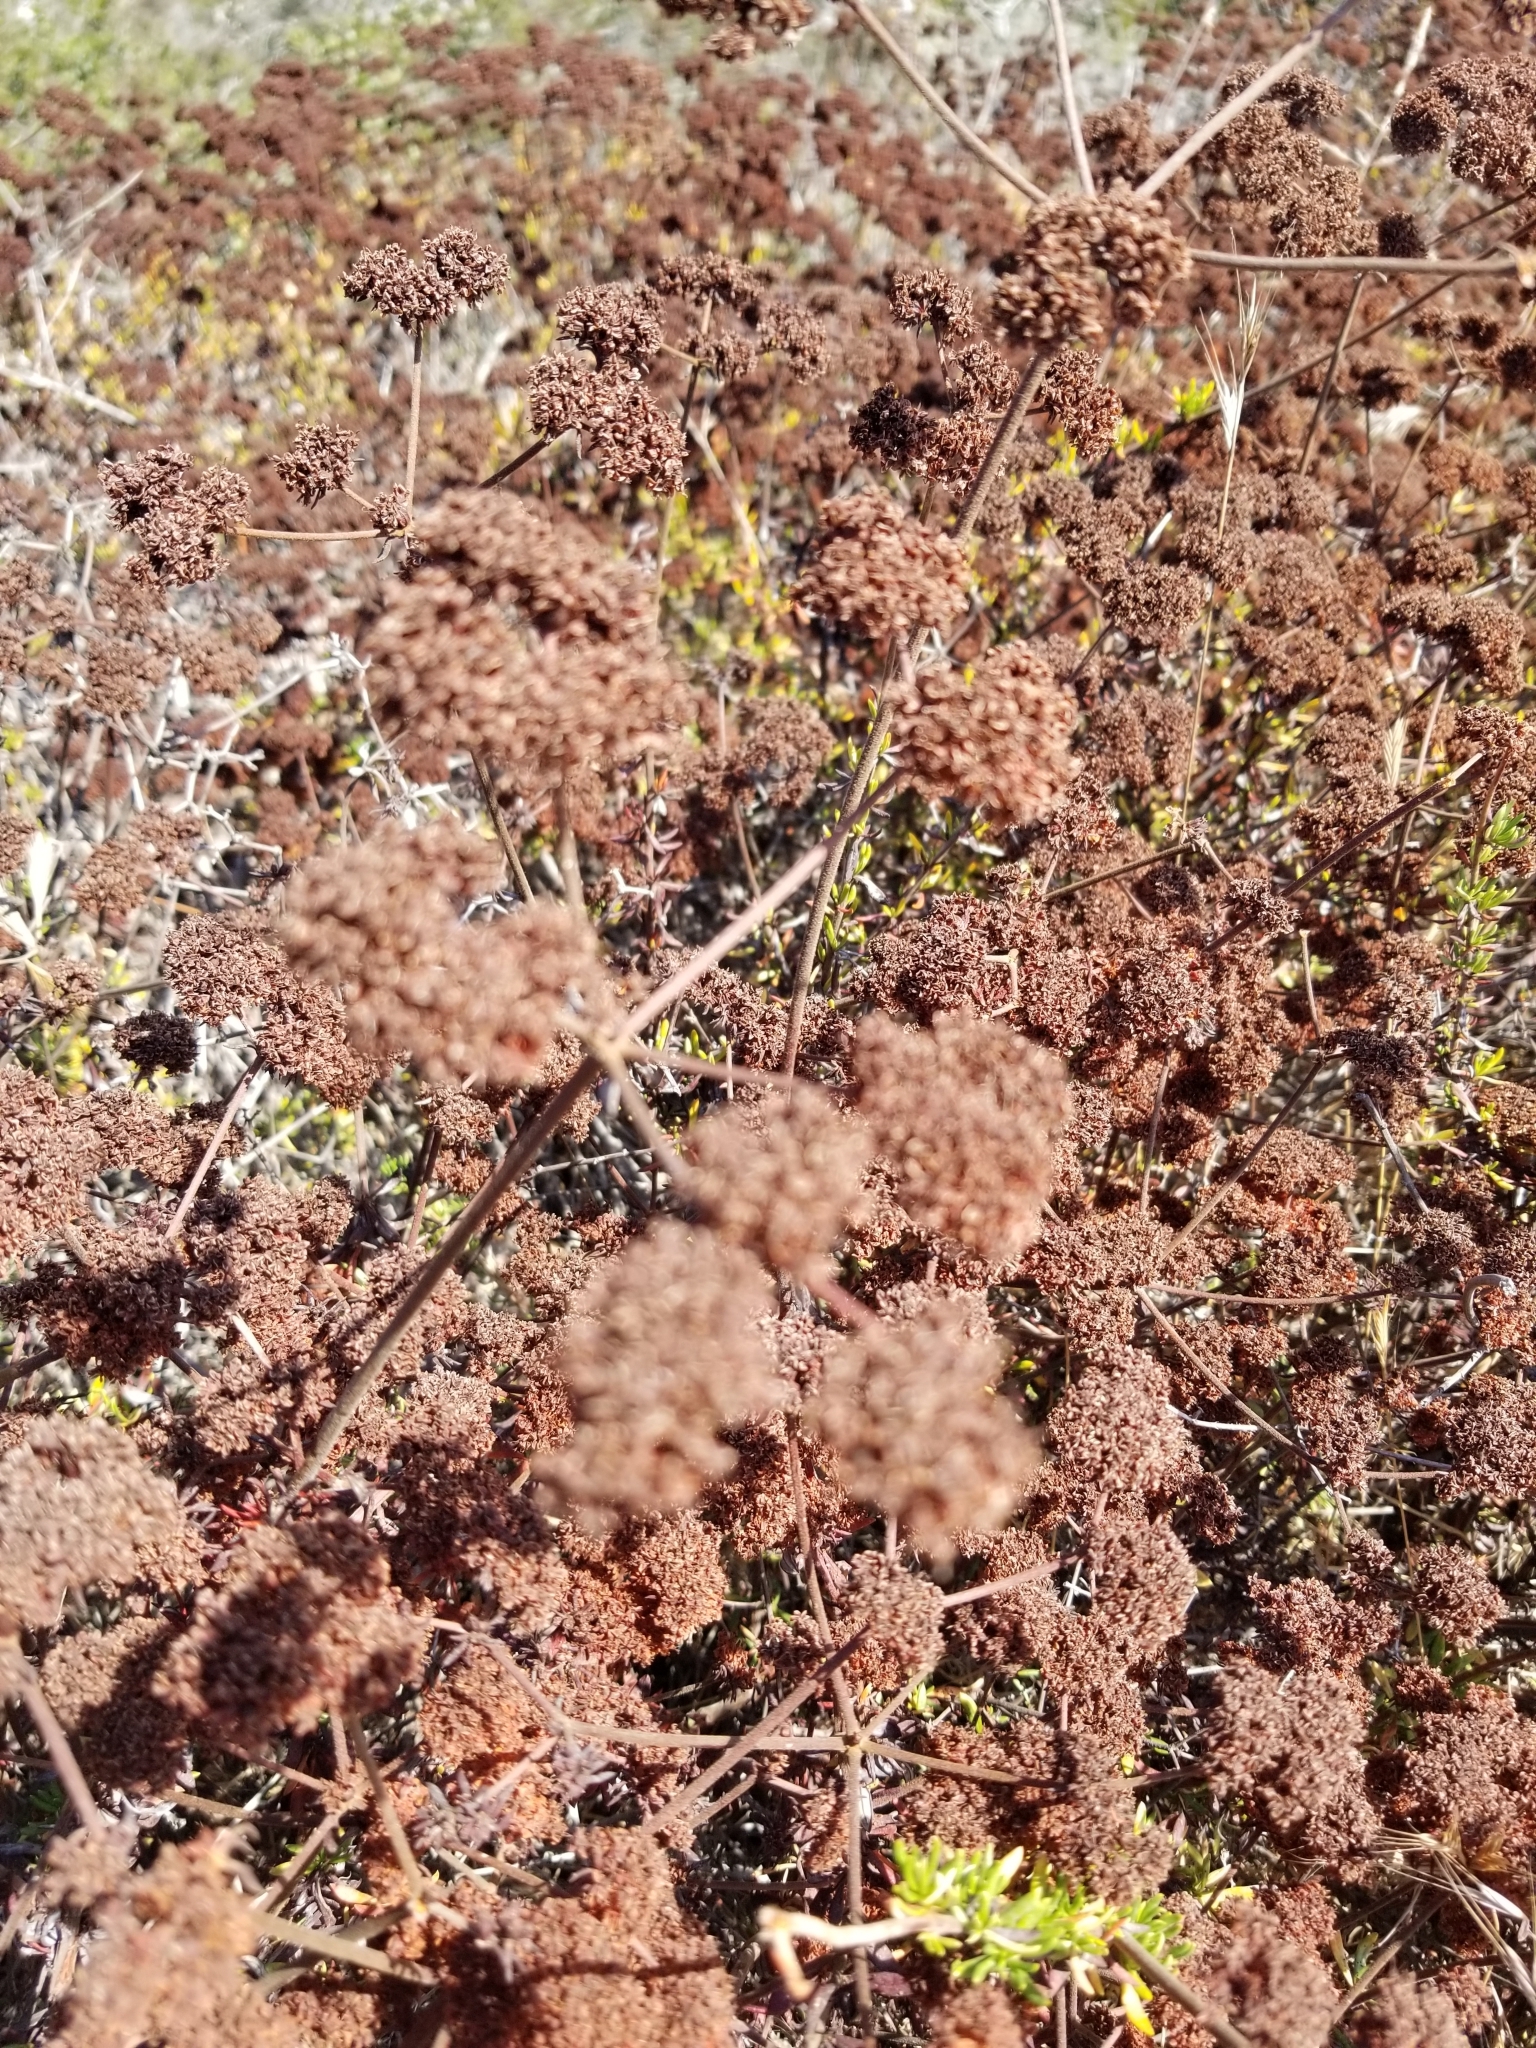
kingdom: Plantae
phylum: Tracheophyta
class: Magnoliopsida
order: Caryophyllales
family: Polygonaceae
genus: Eriogonum
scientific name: Eriogonum fasciculatum
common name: California wild buckwheat
